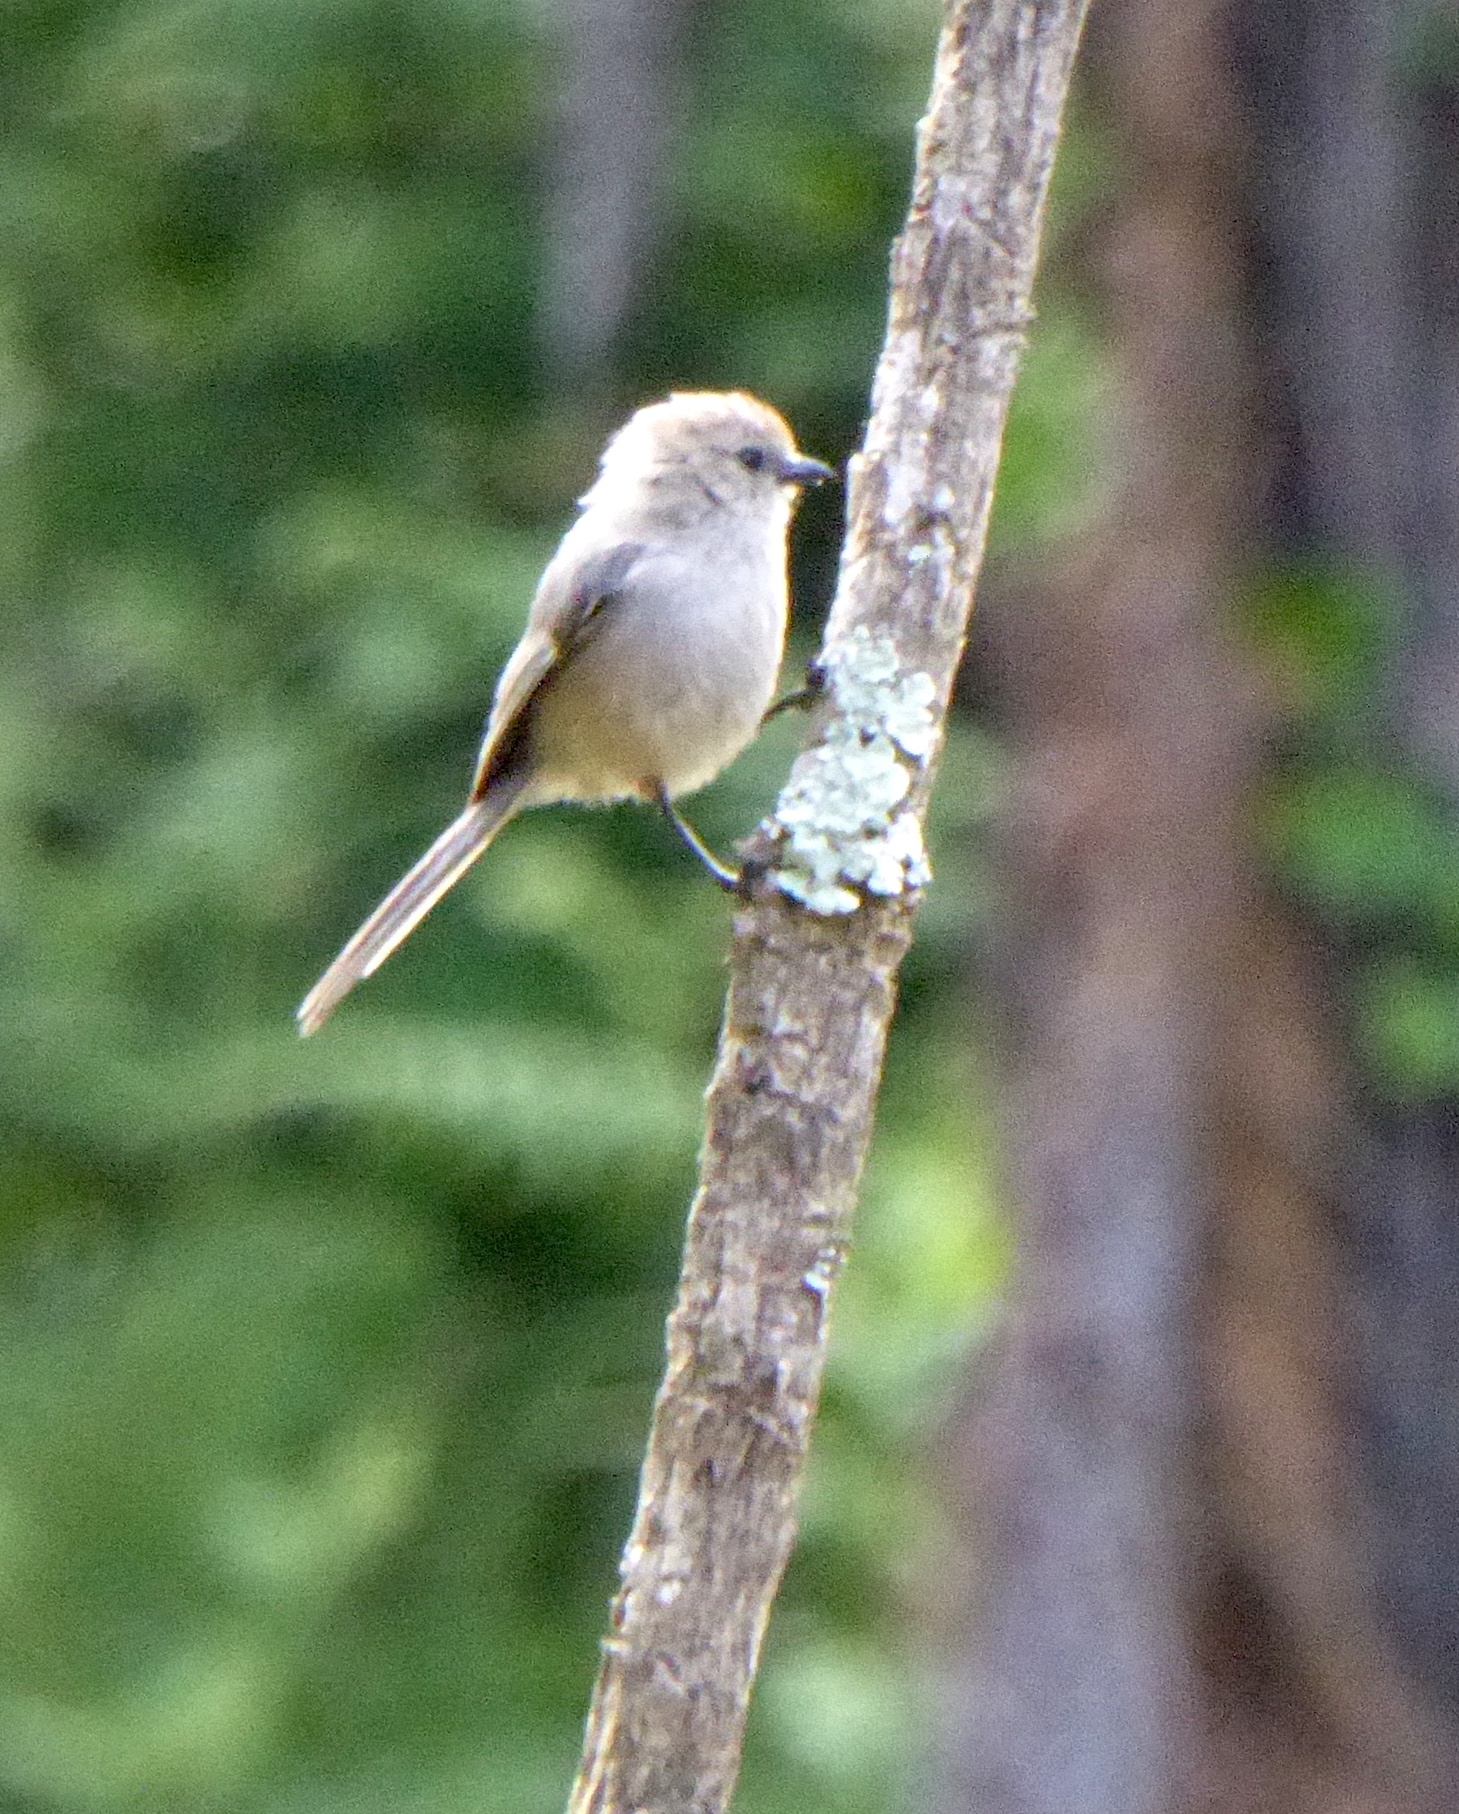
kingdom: Animalia
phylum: Chordata
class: Aves
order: Passeriformes
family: Aegithalidae
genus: Psaltriparus
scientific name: Psaltriparus minimus
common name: American bushtit
